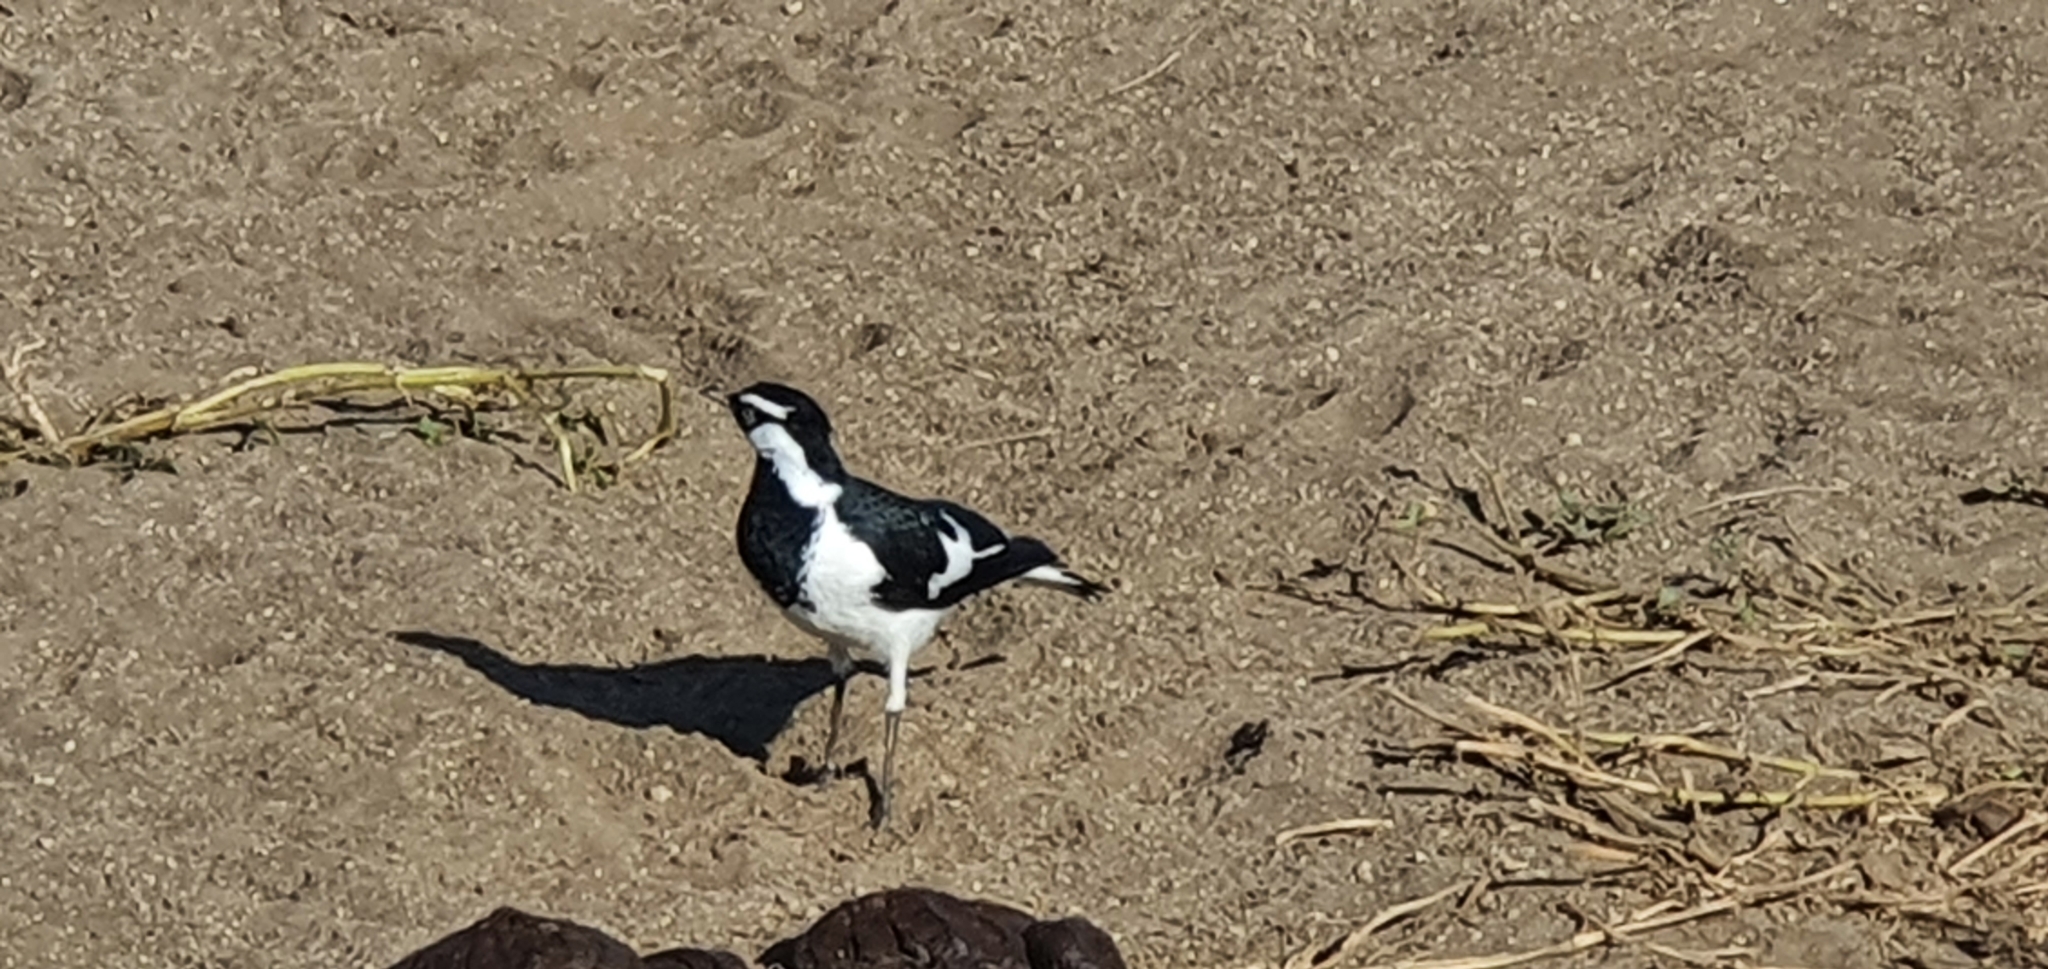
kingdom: Animalia
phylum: Chordata
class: Aves
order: Passeriformes
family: Monarchidae
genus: Grallina
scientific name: Grallina cyanoleuca
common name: Magpie-lark
